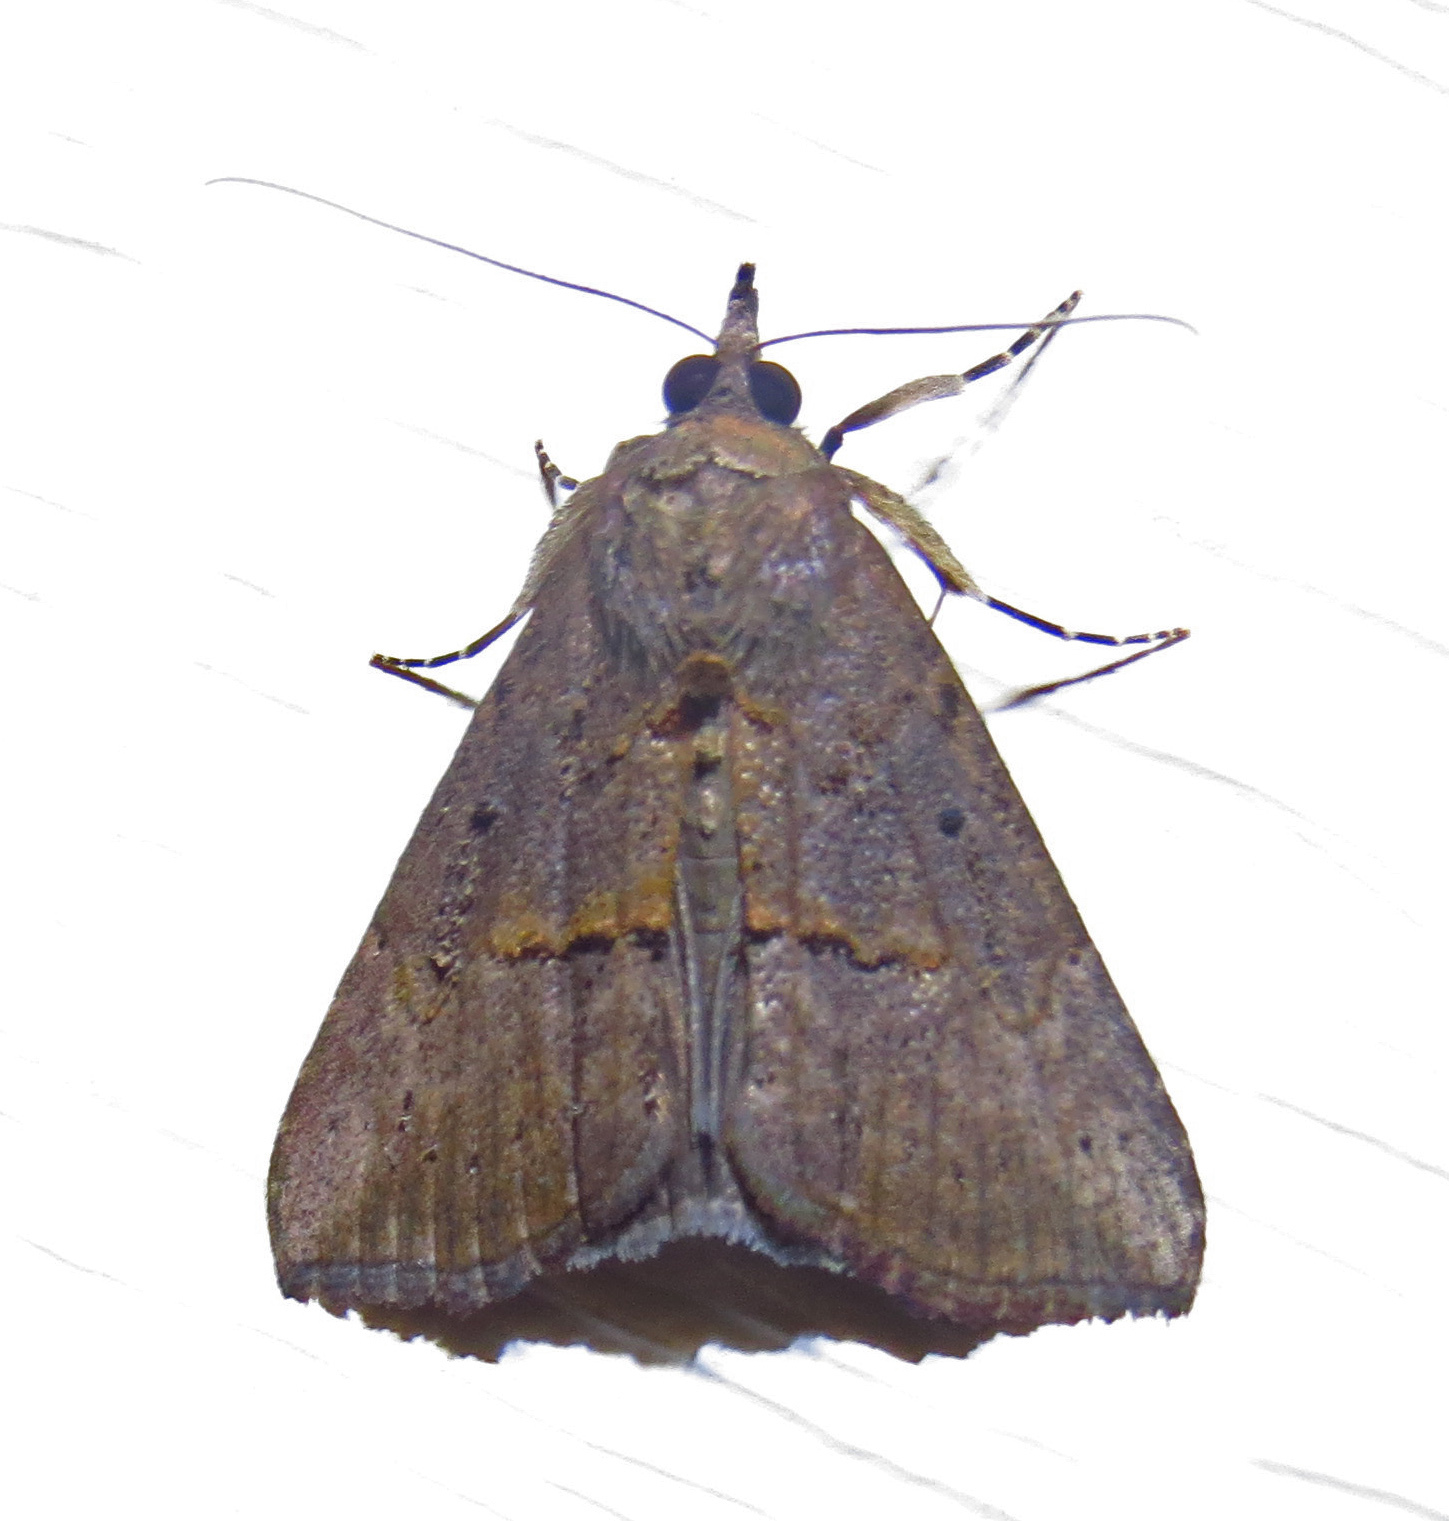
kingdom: Animalia
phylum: Arthropoda
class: Insecta
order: Lepidoptera
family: Erebidae
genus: Hypena
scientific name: Hypena scabra
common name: Green cloverworm
